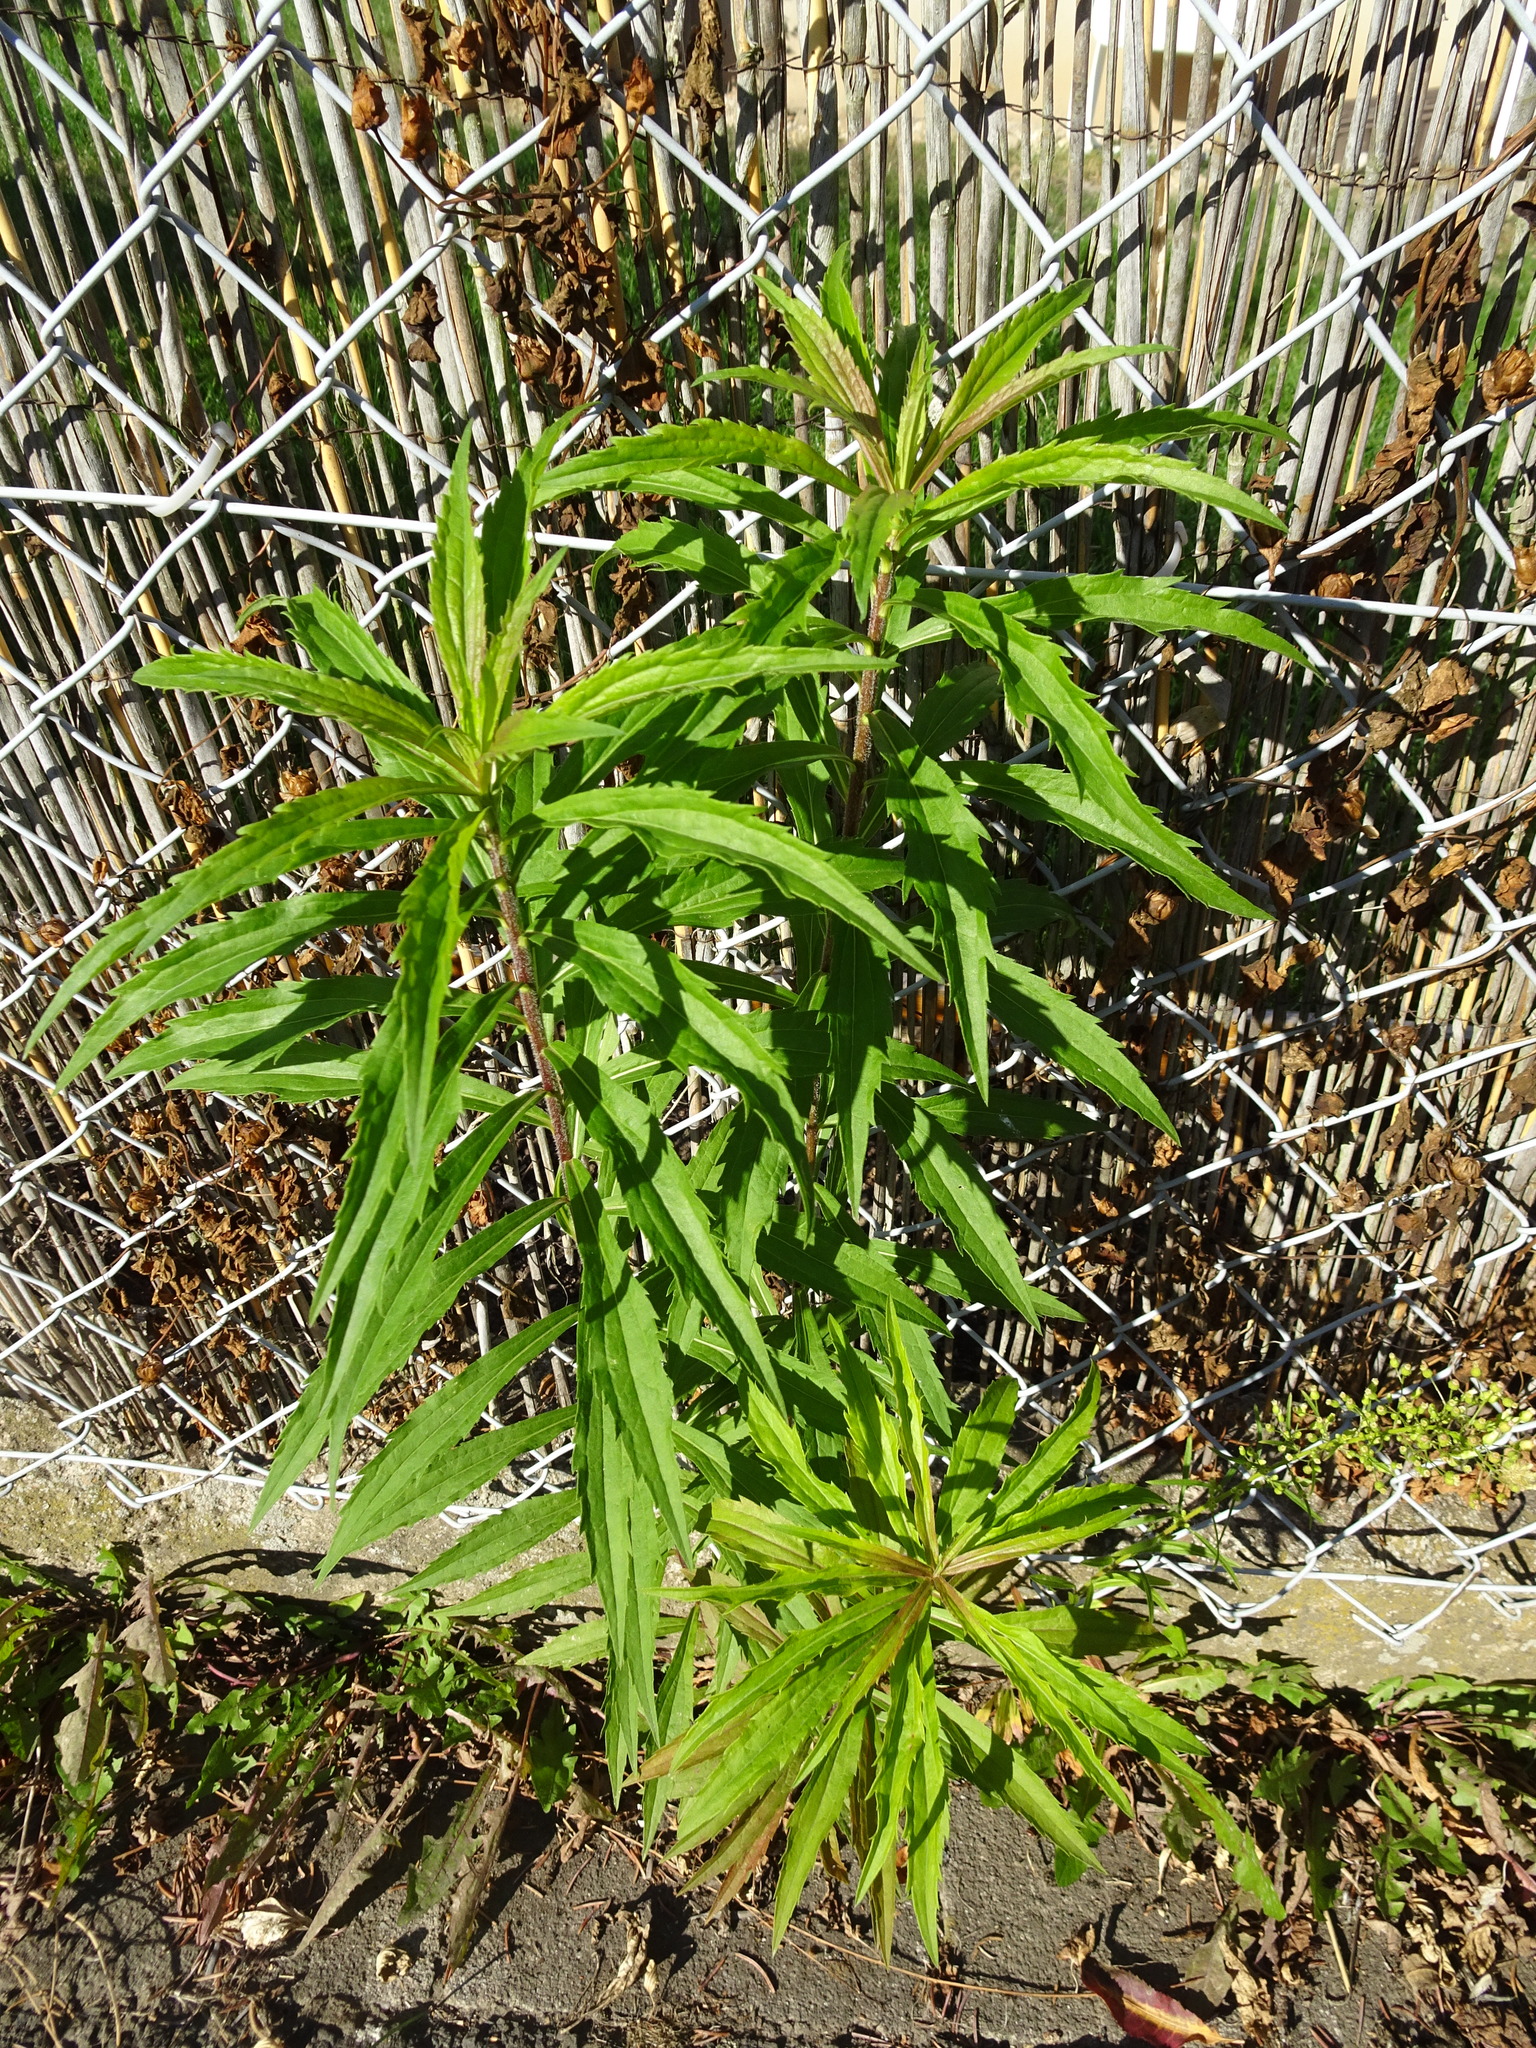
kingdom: Plantae
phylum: Tracheophyta
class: Magnoliopsida
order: Asterales
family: Asteraceae
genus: Solidago
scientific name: Solidago canadensis
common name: Canada goldenrod
